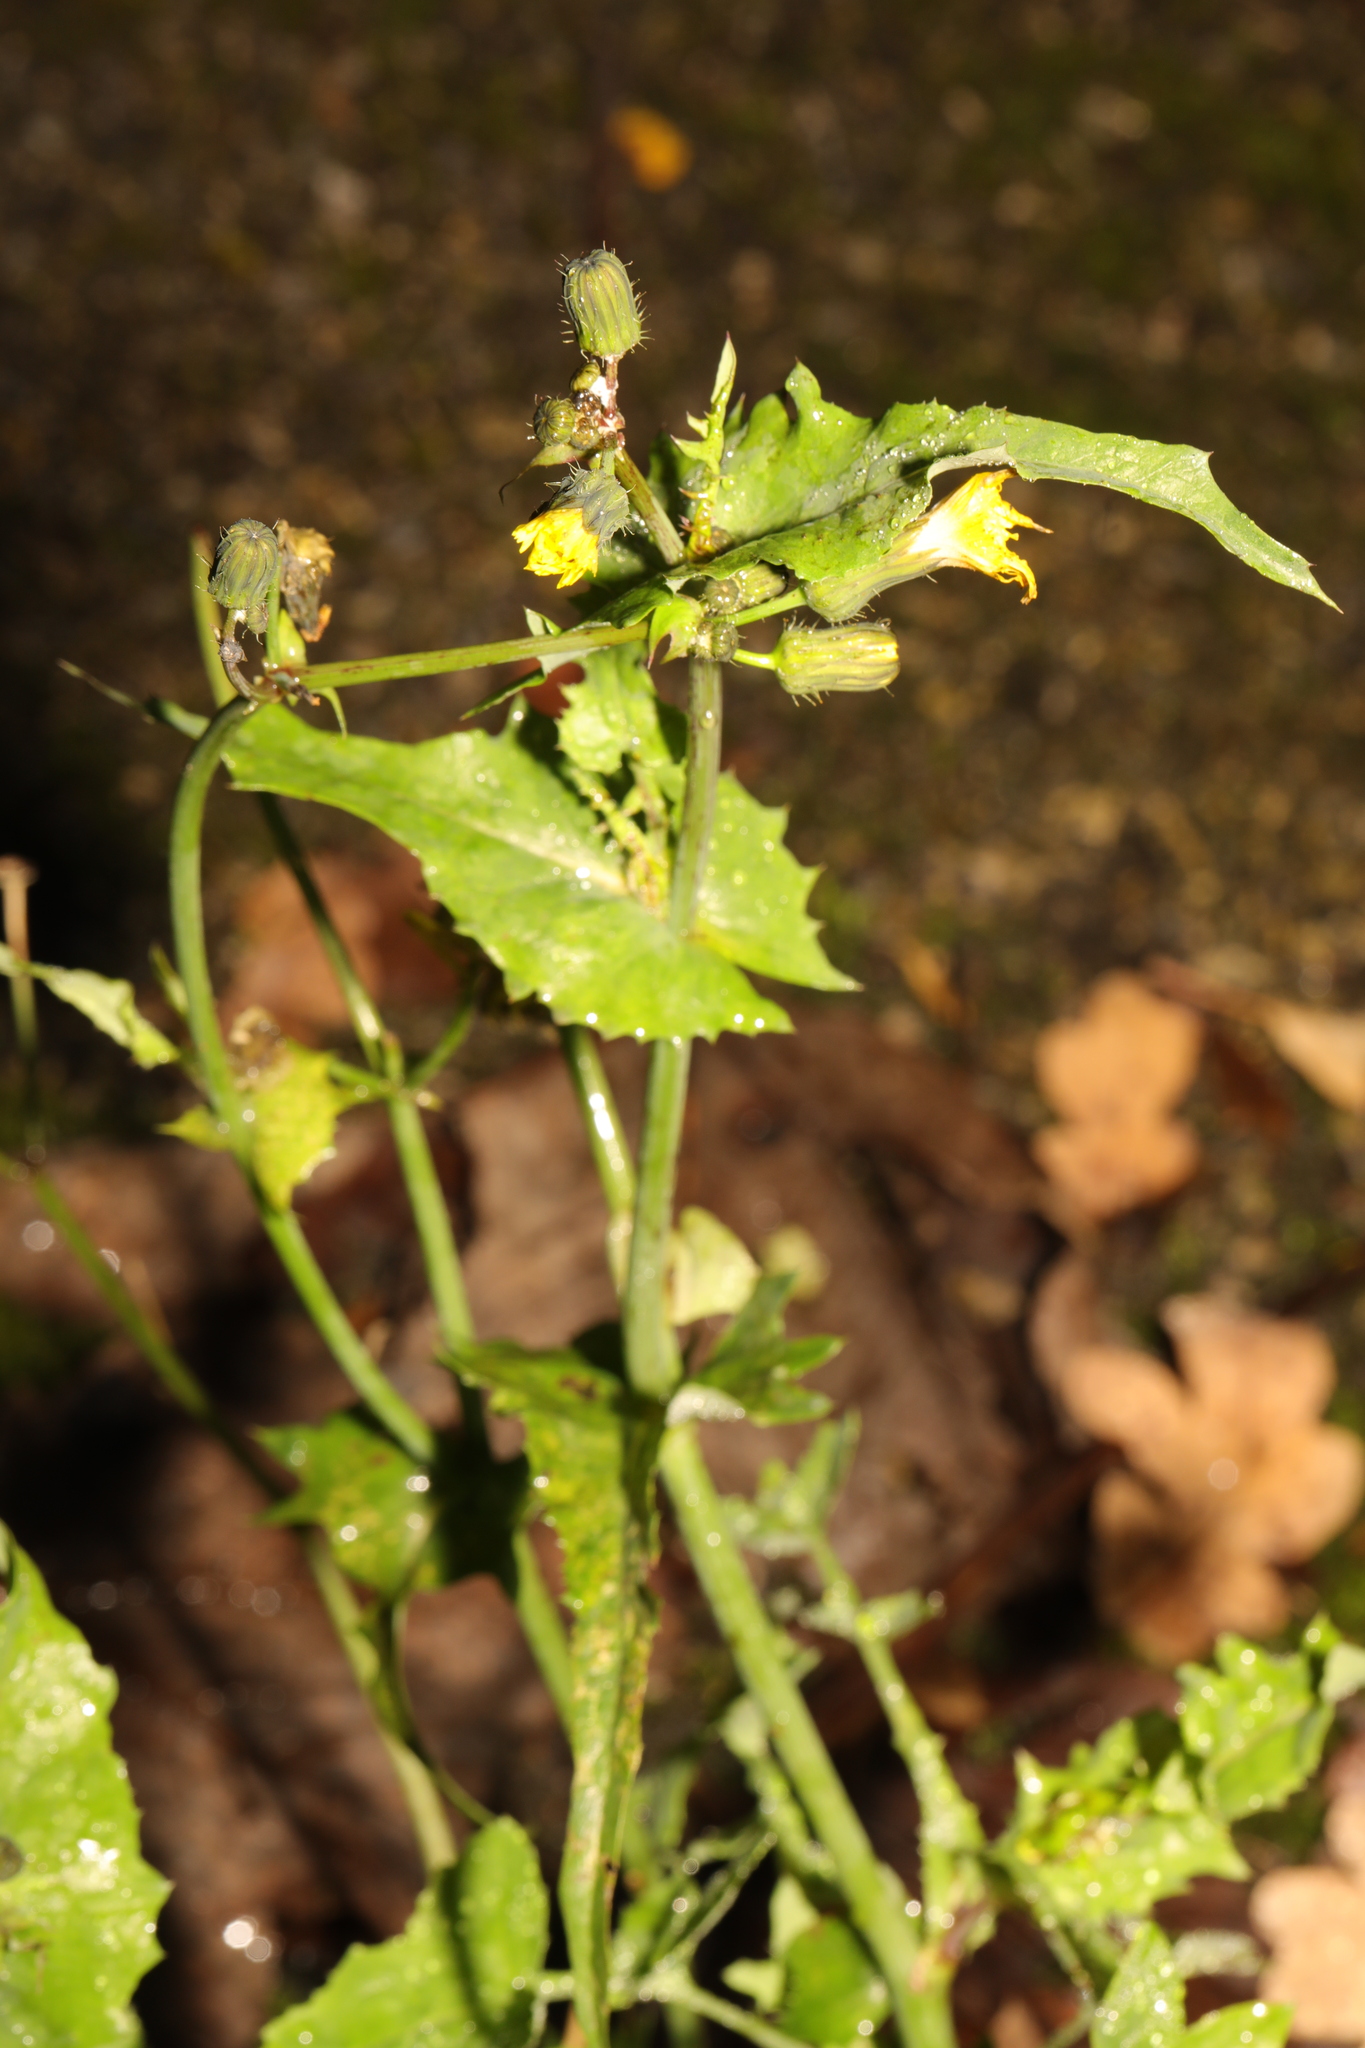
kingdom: Plantae
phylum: Tracheophyta
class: Magnoliopsida
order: Asterales
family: Asteraceae
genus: Sonchus
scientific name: Sonchus oleraceus
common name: Common sowthistle
